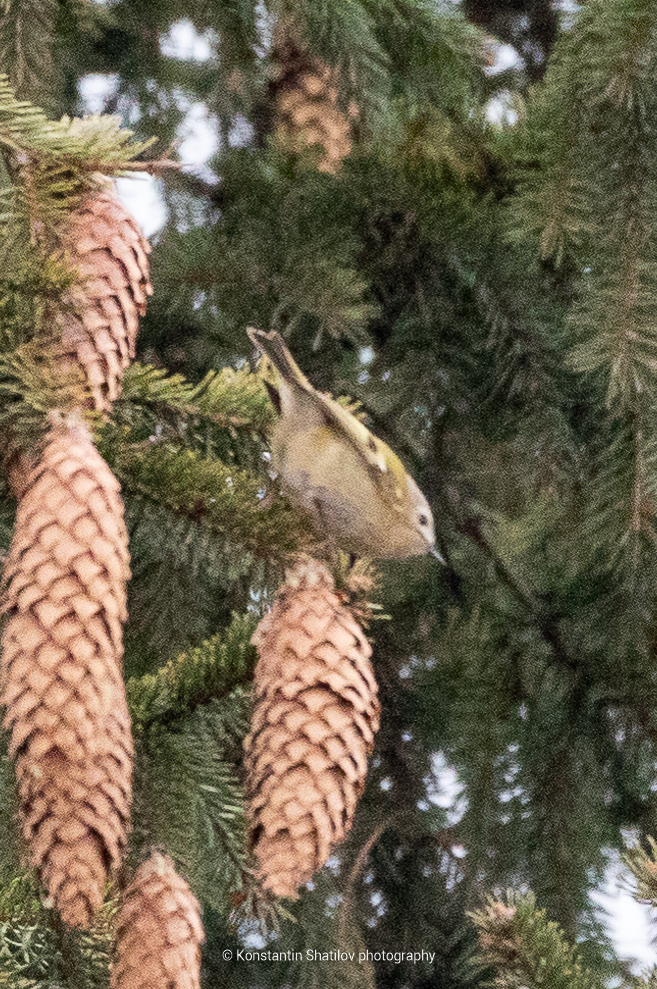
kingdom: Animalia
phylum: Chordata
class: Aves
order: Passeriformes
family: Regulidae
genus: Regulus
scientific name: Regulus regulus
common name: Goldcrest
